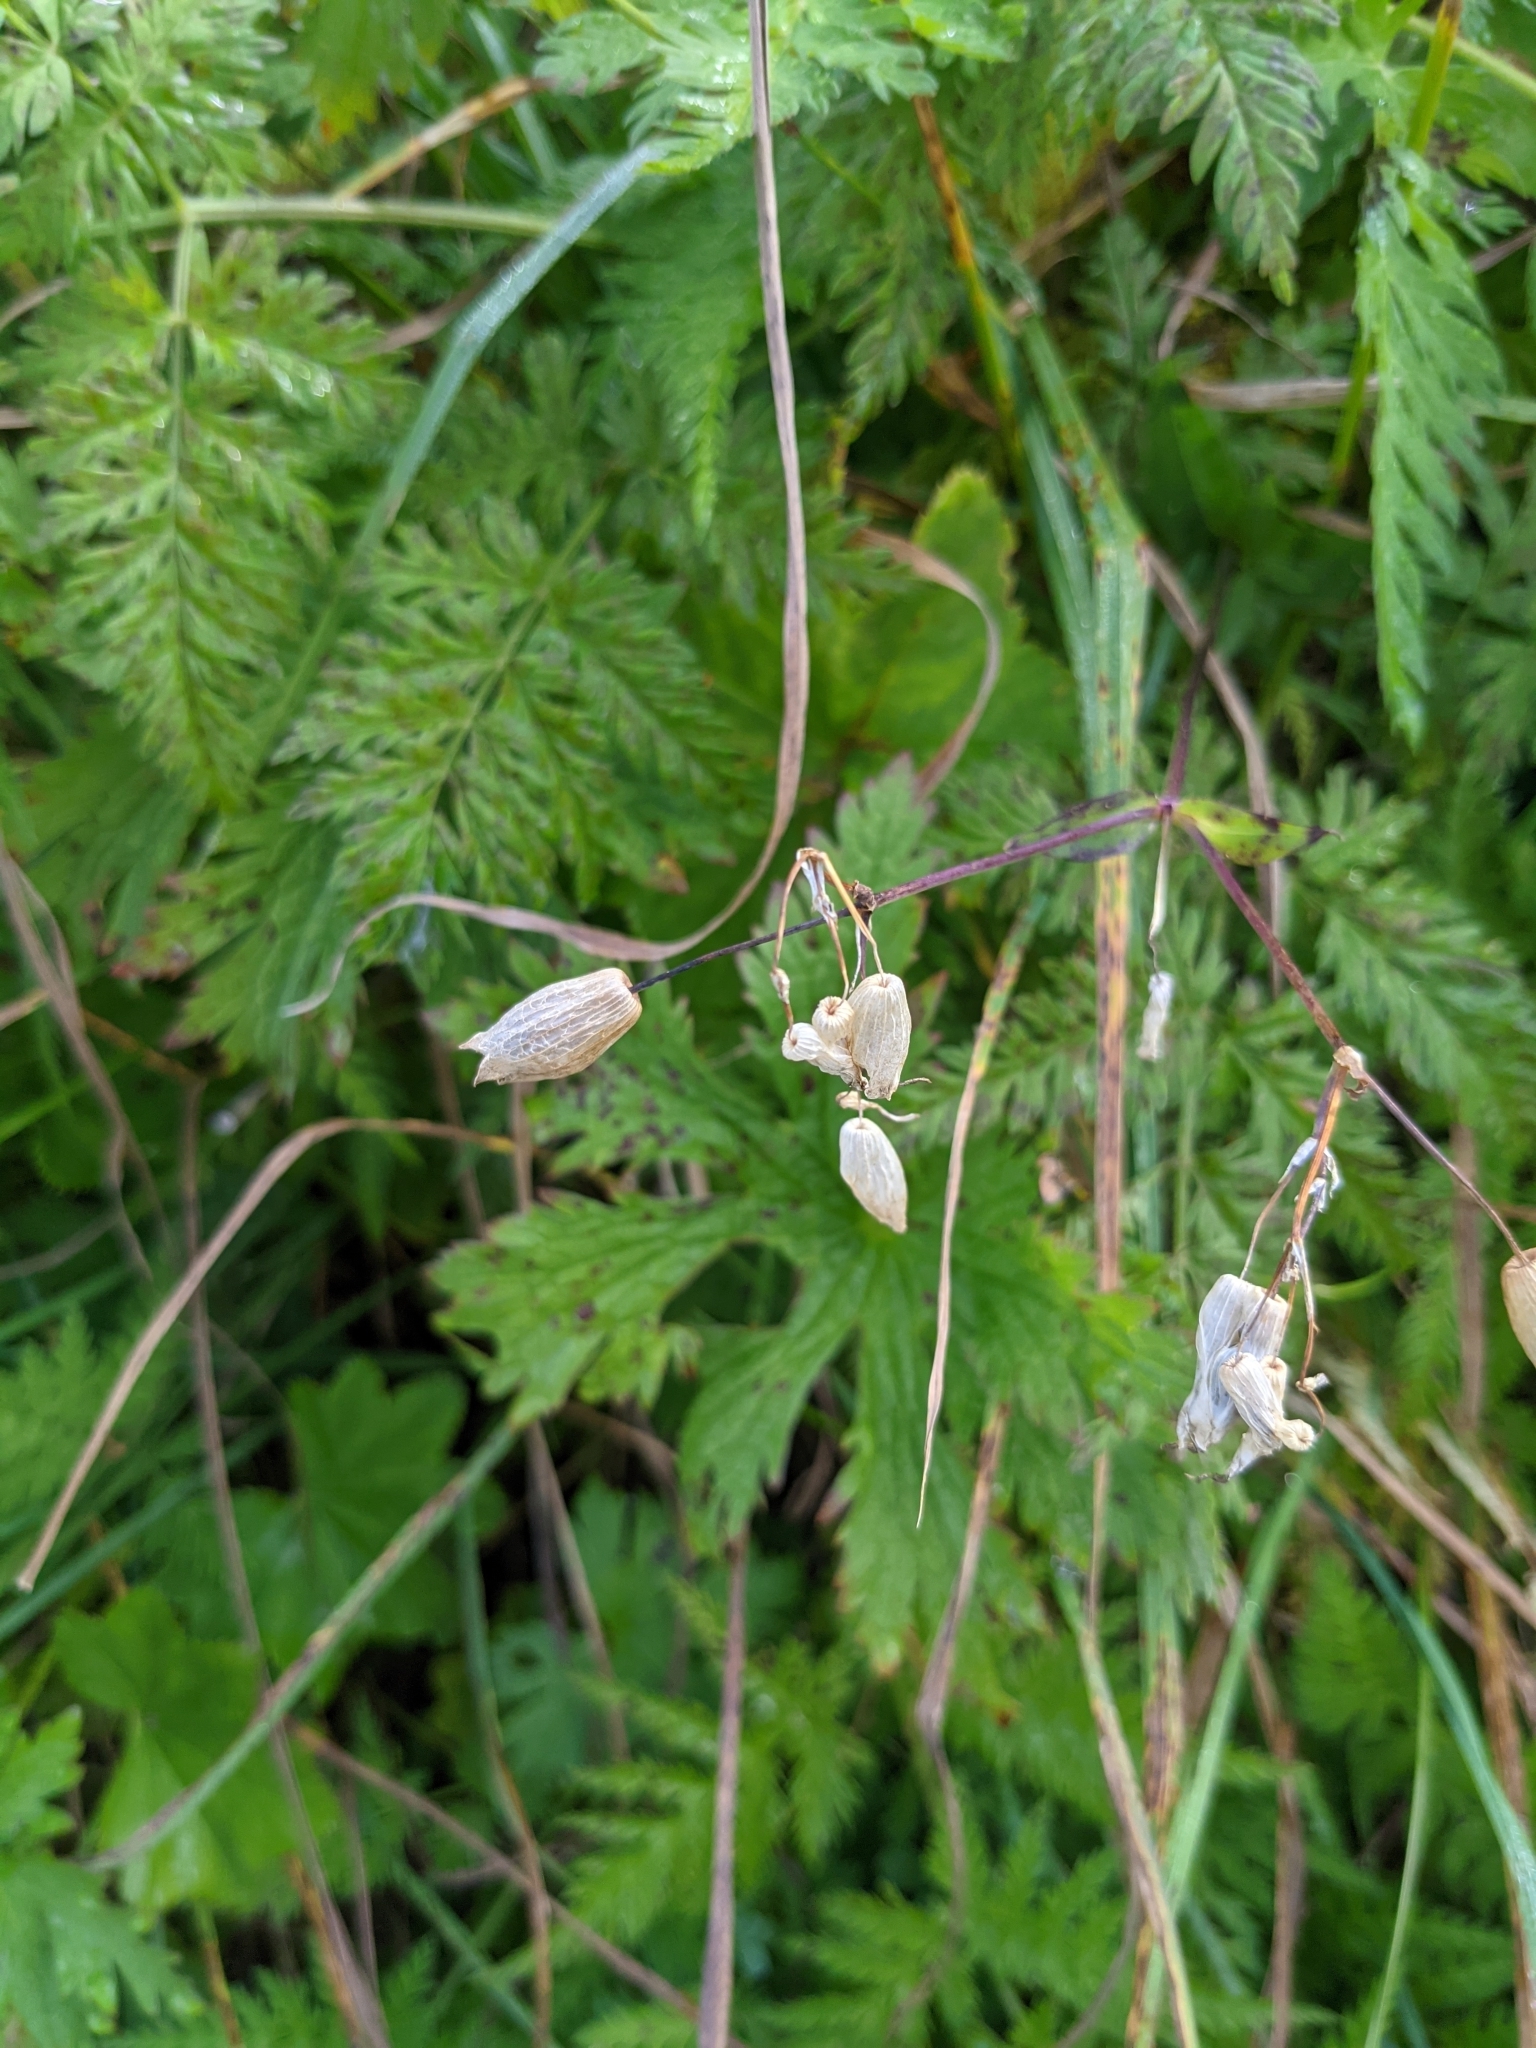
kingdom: Plantae
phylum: Tracheophyta
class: Magnoliopsida
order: Caryophyllales
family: Caryophyllaceae
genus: Silene
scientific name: Silene vulgaris
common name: Bladder campion
